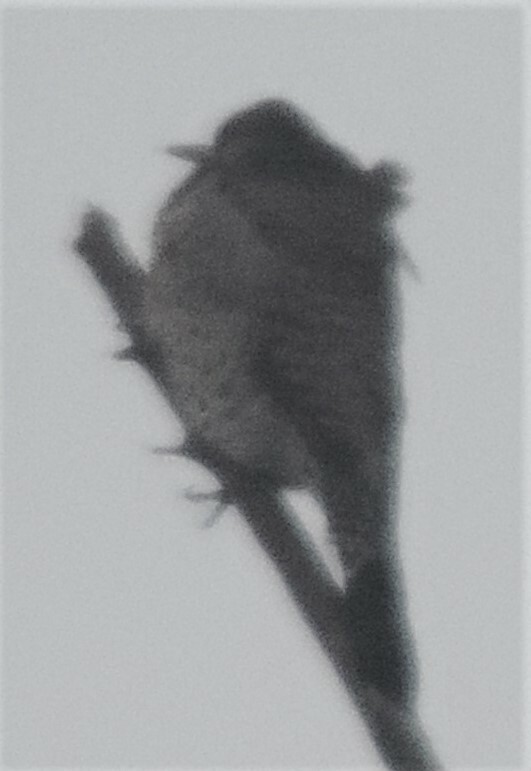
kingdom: Animalia
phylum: Chordata
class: Aves
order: Piciformes
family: Picidae
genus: Colaptes
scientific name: Colaptes auratus
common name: Northern flicker
